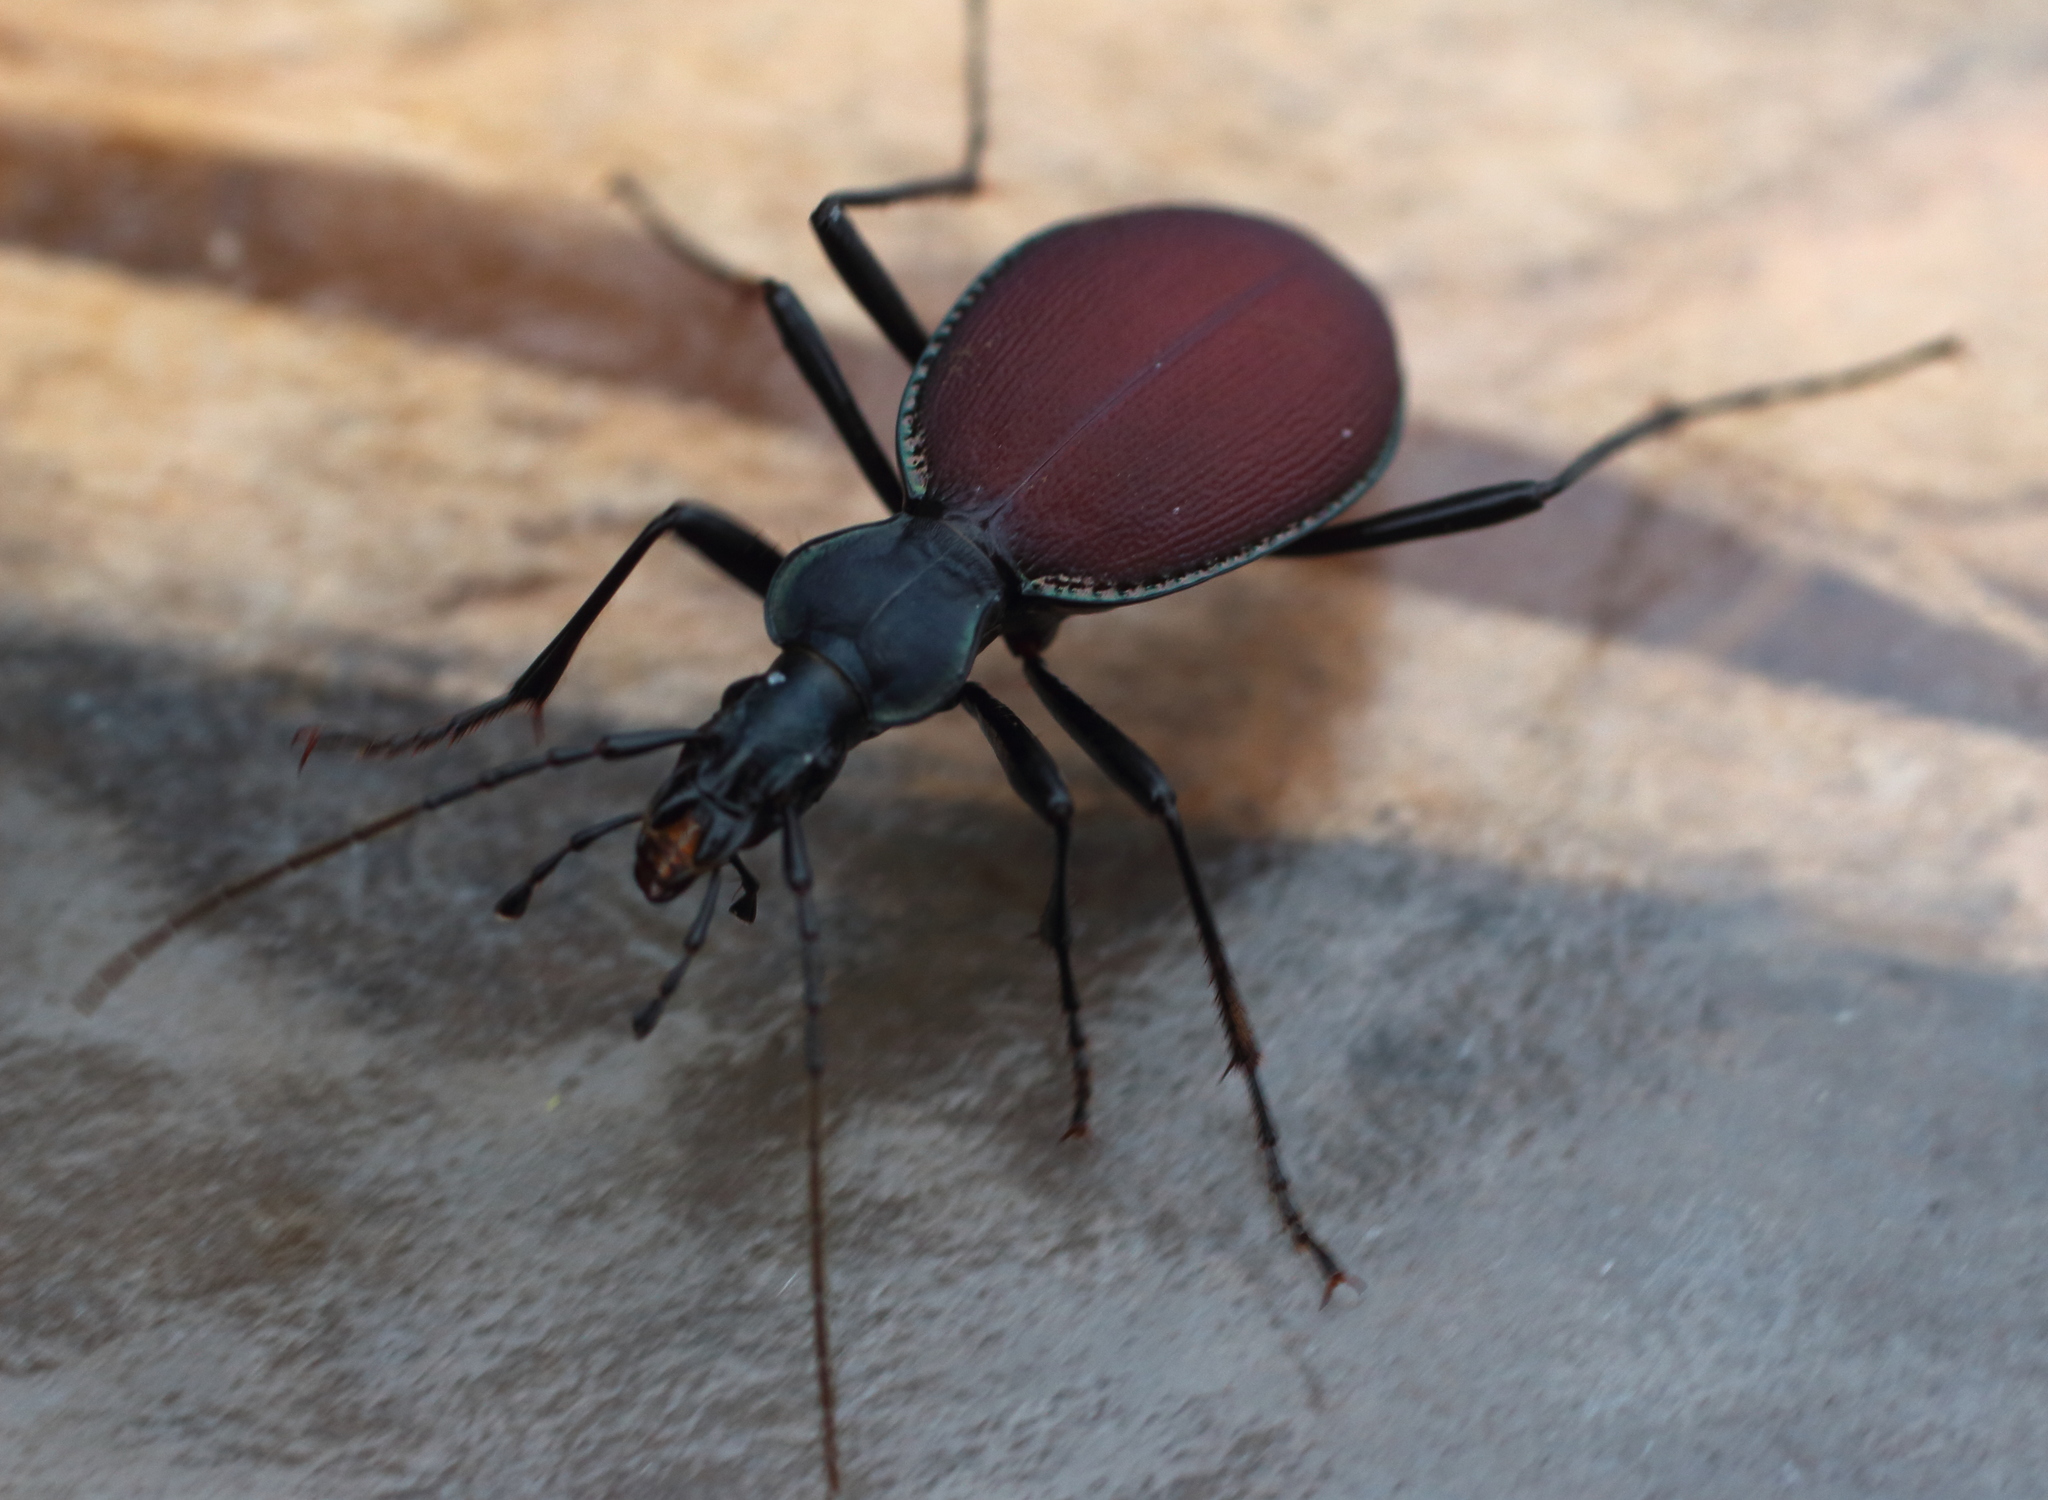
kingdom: Animalia
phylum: Arthropoda
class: Insecta
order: Coleoptera
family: Carabidae
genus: Scaphinotus
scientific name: Scaphinotus angusticollis
